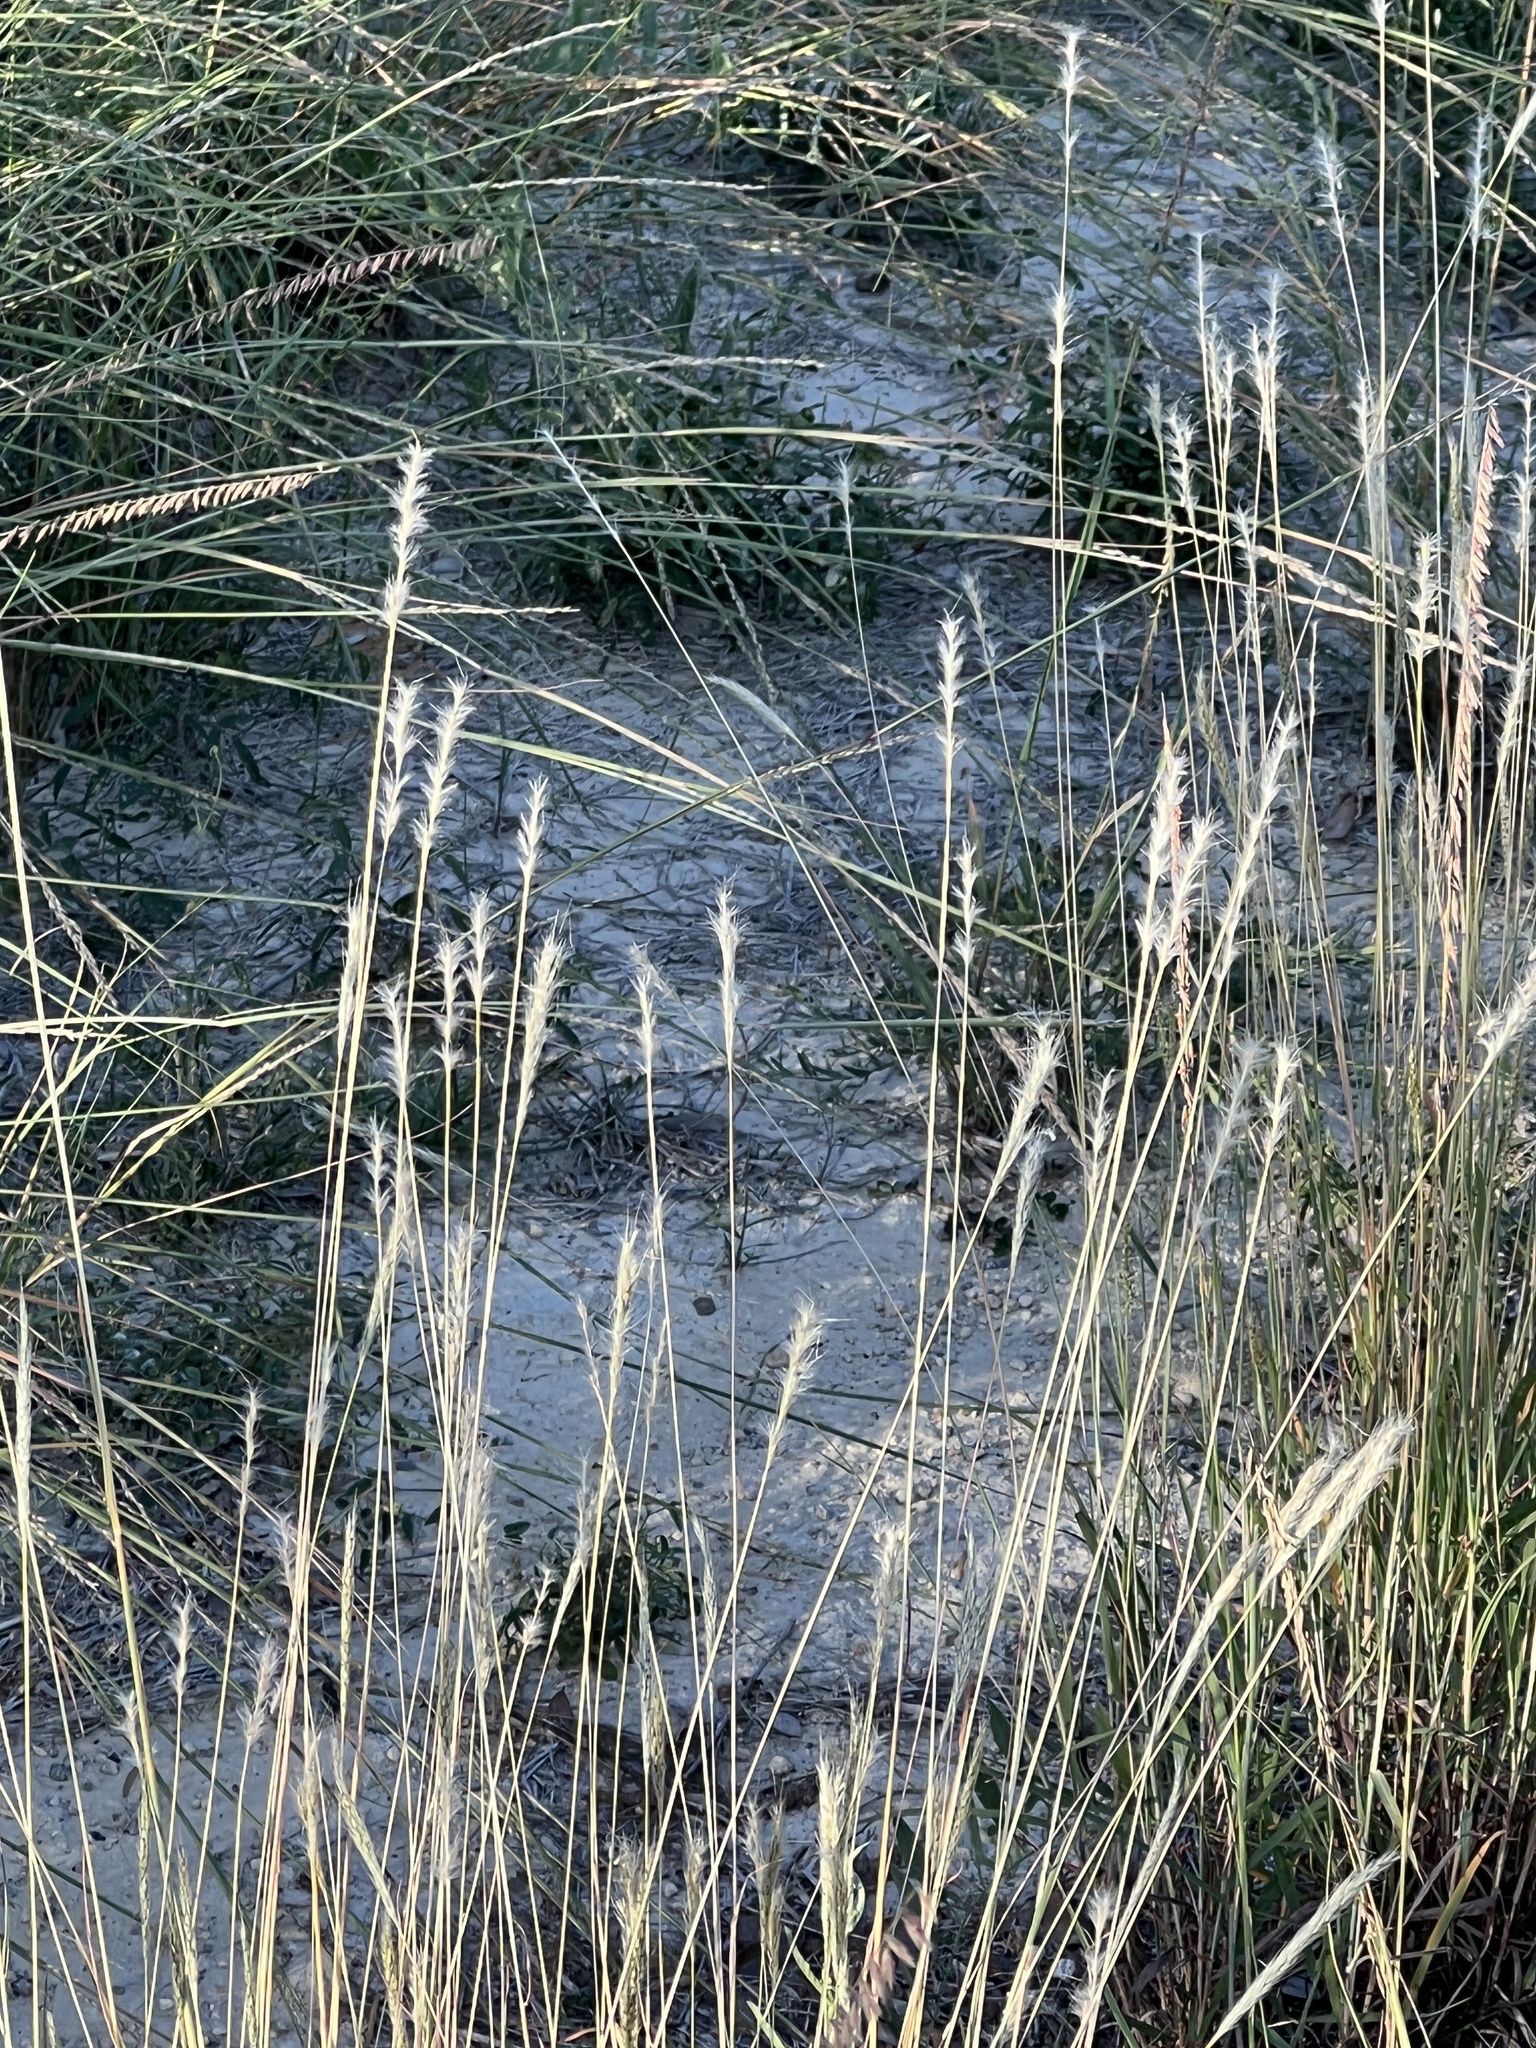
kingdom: Plantae
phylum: Tracheophyta
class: Liliopsida
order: Poales
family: Poaceae
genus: Bothriochloa
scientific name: Bothriochloa torreyana
